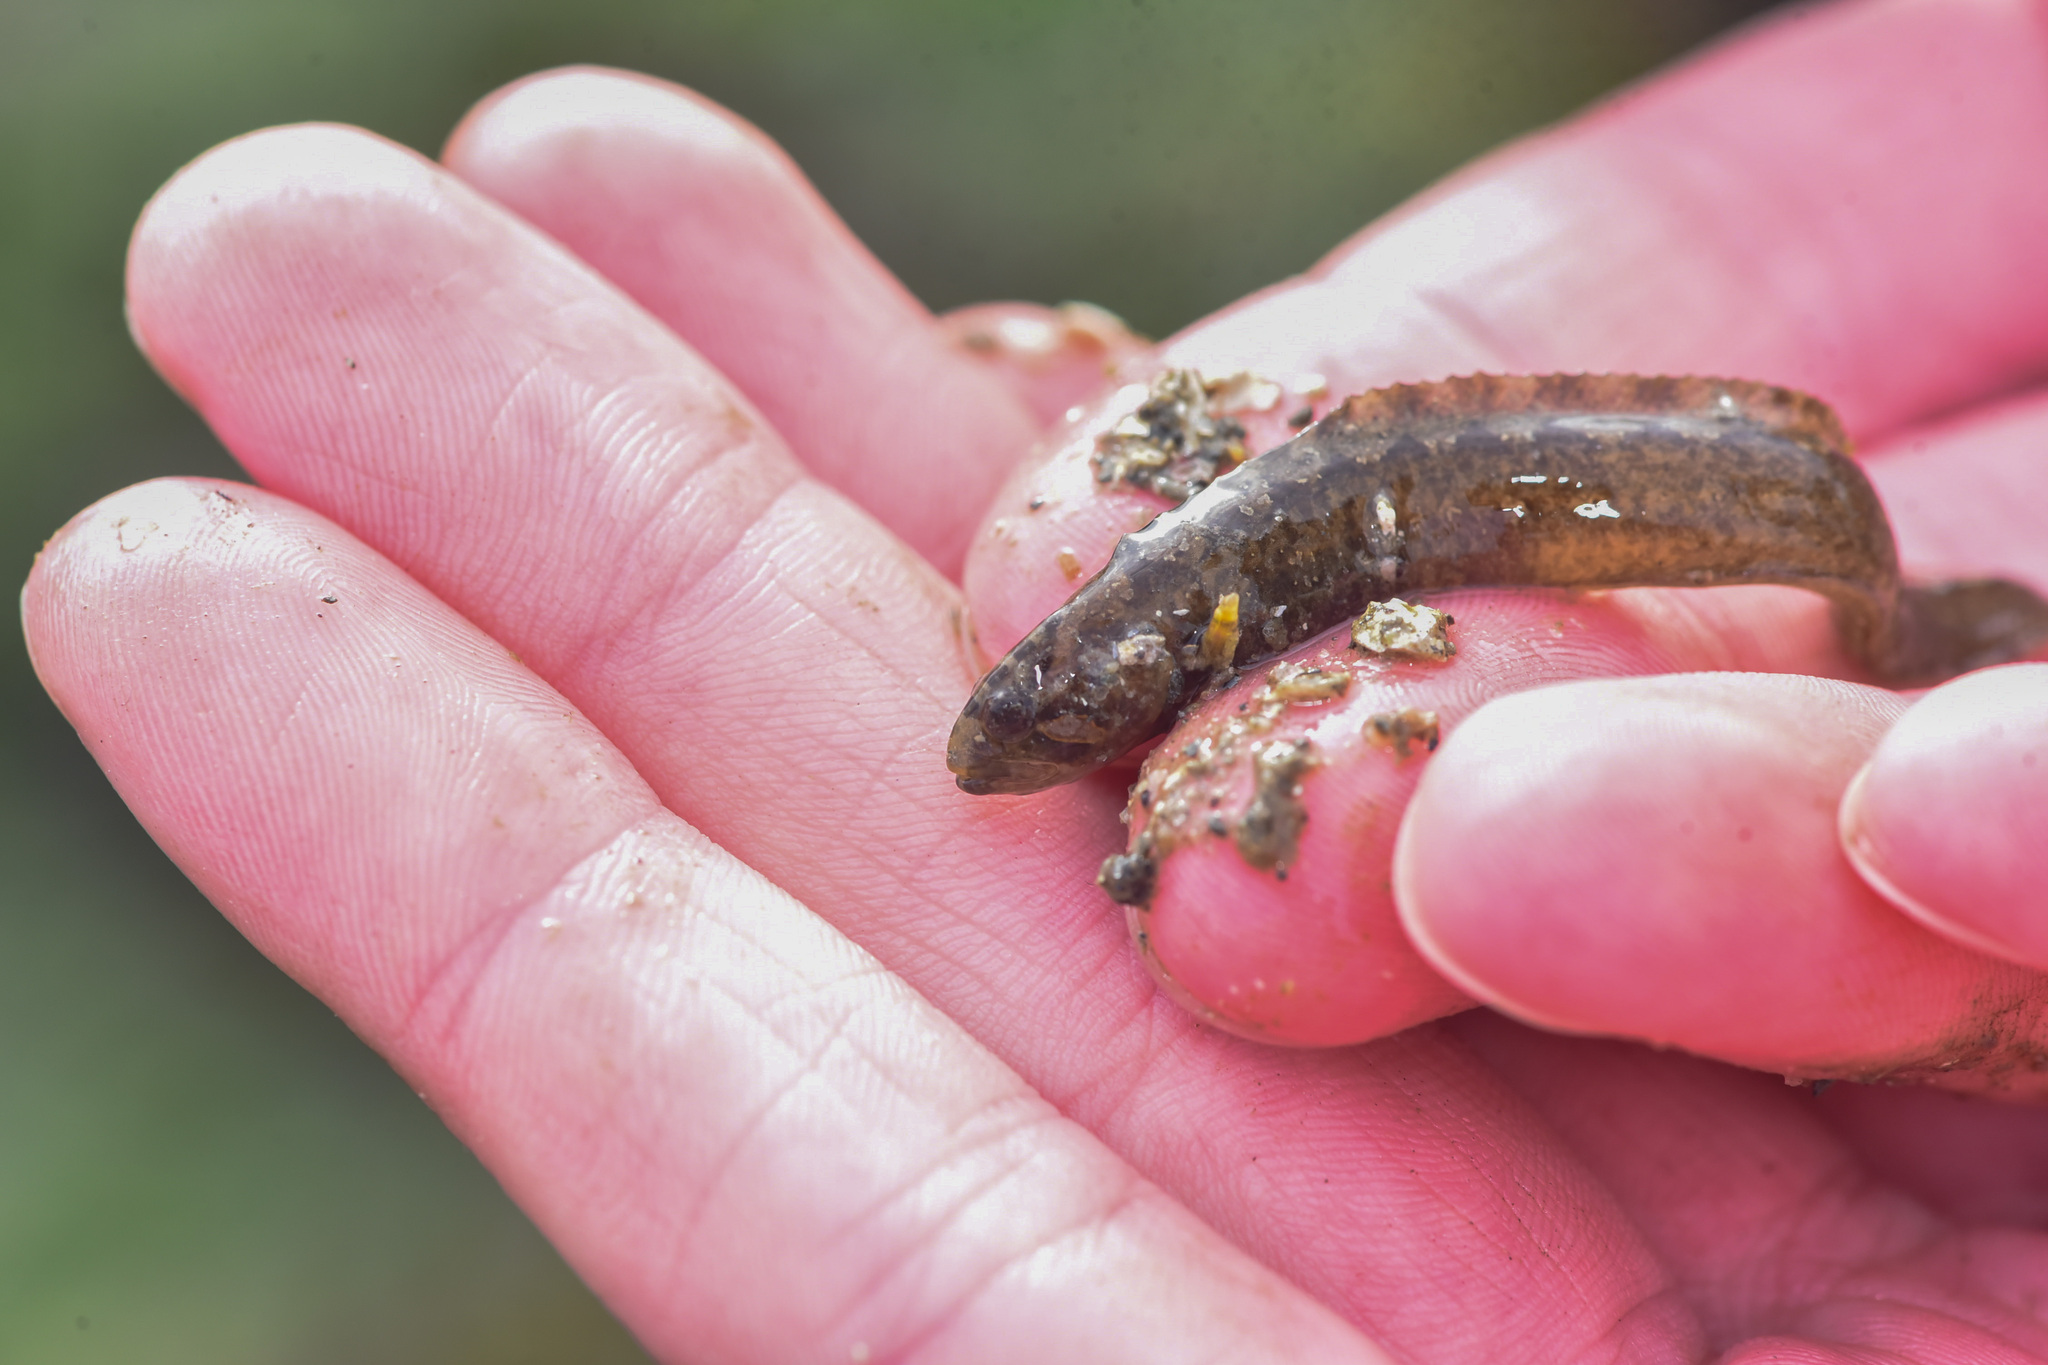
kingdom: Animalia
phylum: Chordata
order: Perciformes
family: Stichaeidae
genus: Anoplarchus
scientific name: Anoplarchus purpurescens
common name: High cockscomb
